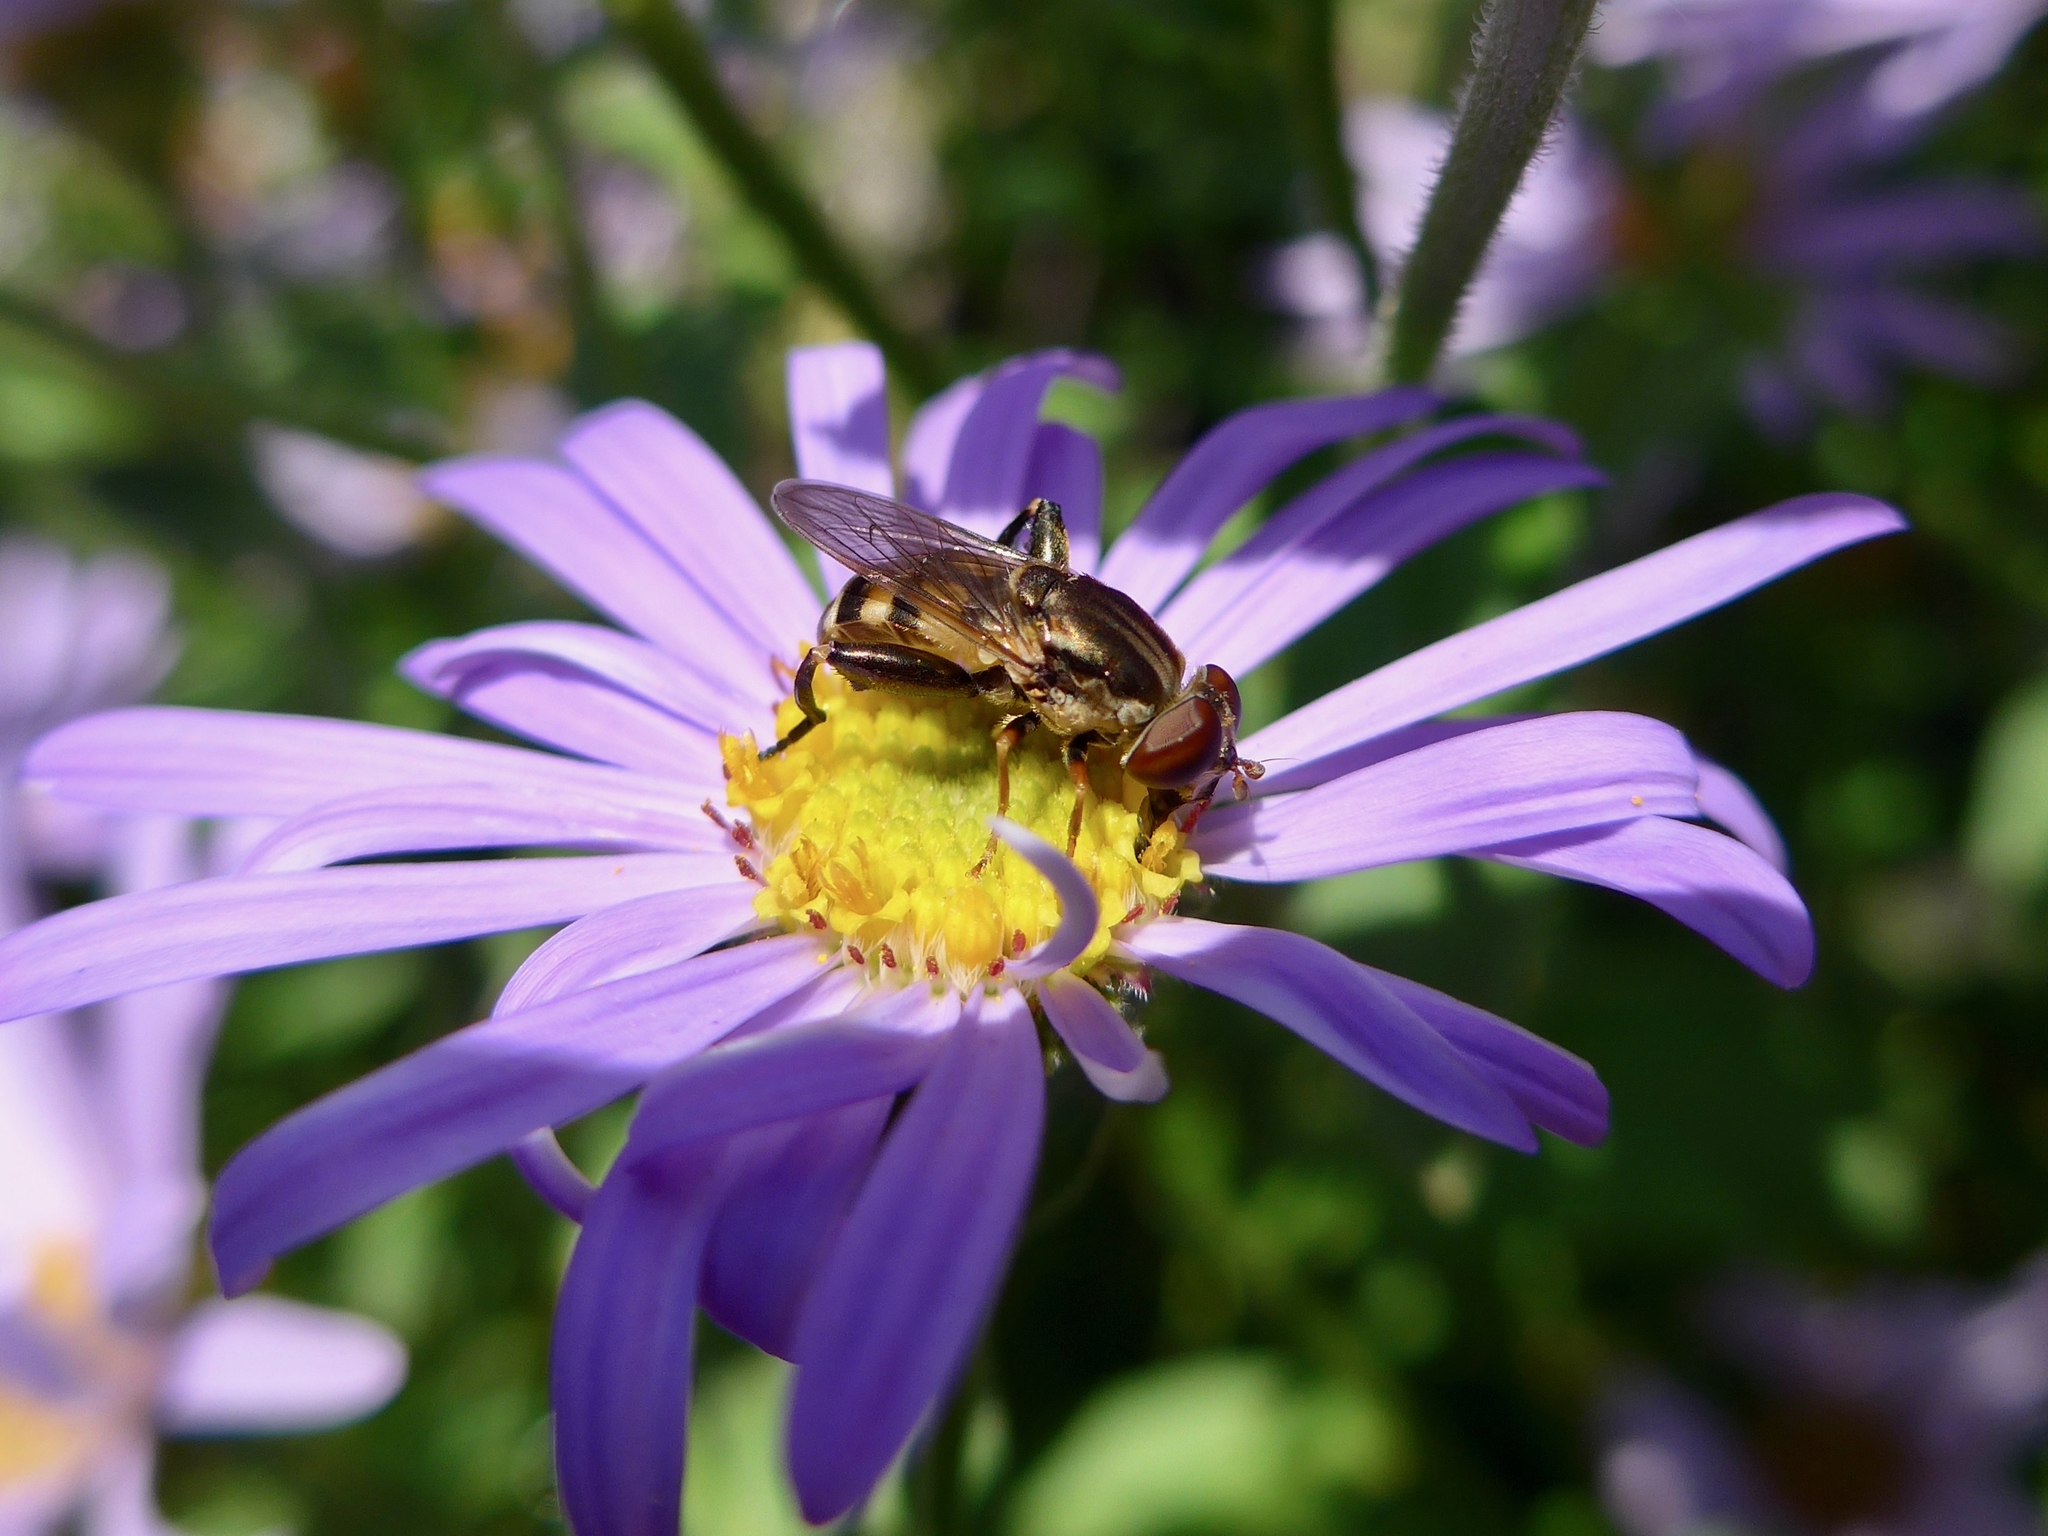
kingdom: Animalia
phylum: Arthropoda
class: Insecta
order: Diptera
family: Syrphidae
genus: Tropidia
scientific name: Tropidia quadrata
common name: Common thick-legged fly
